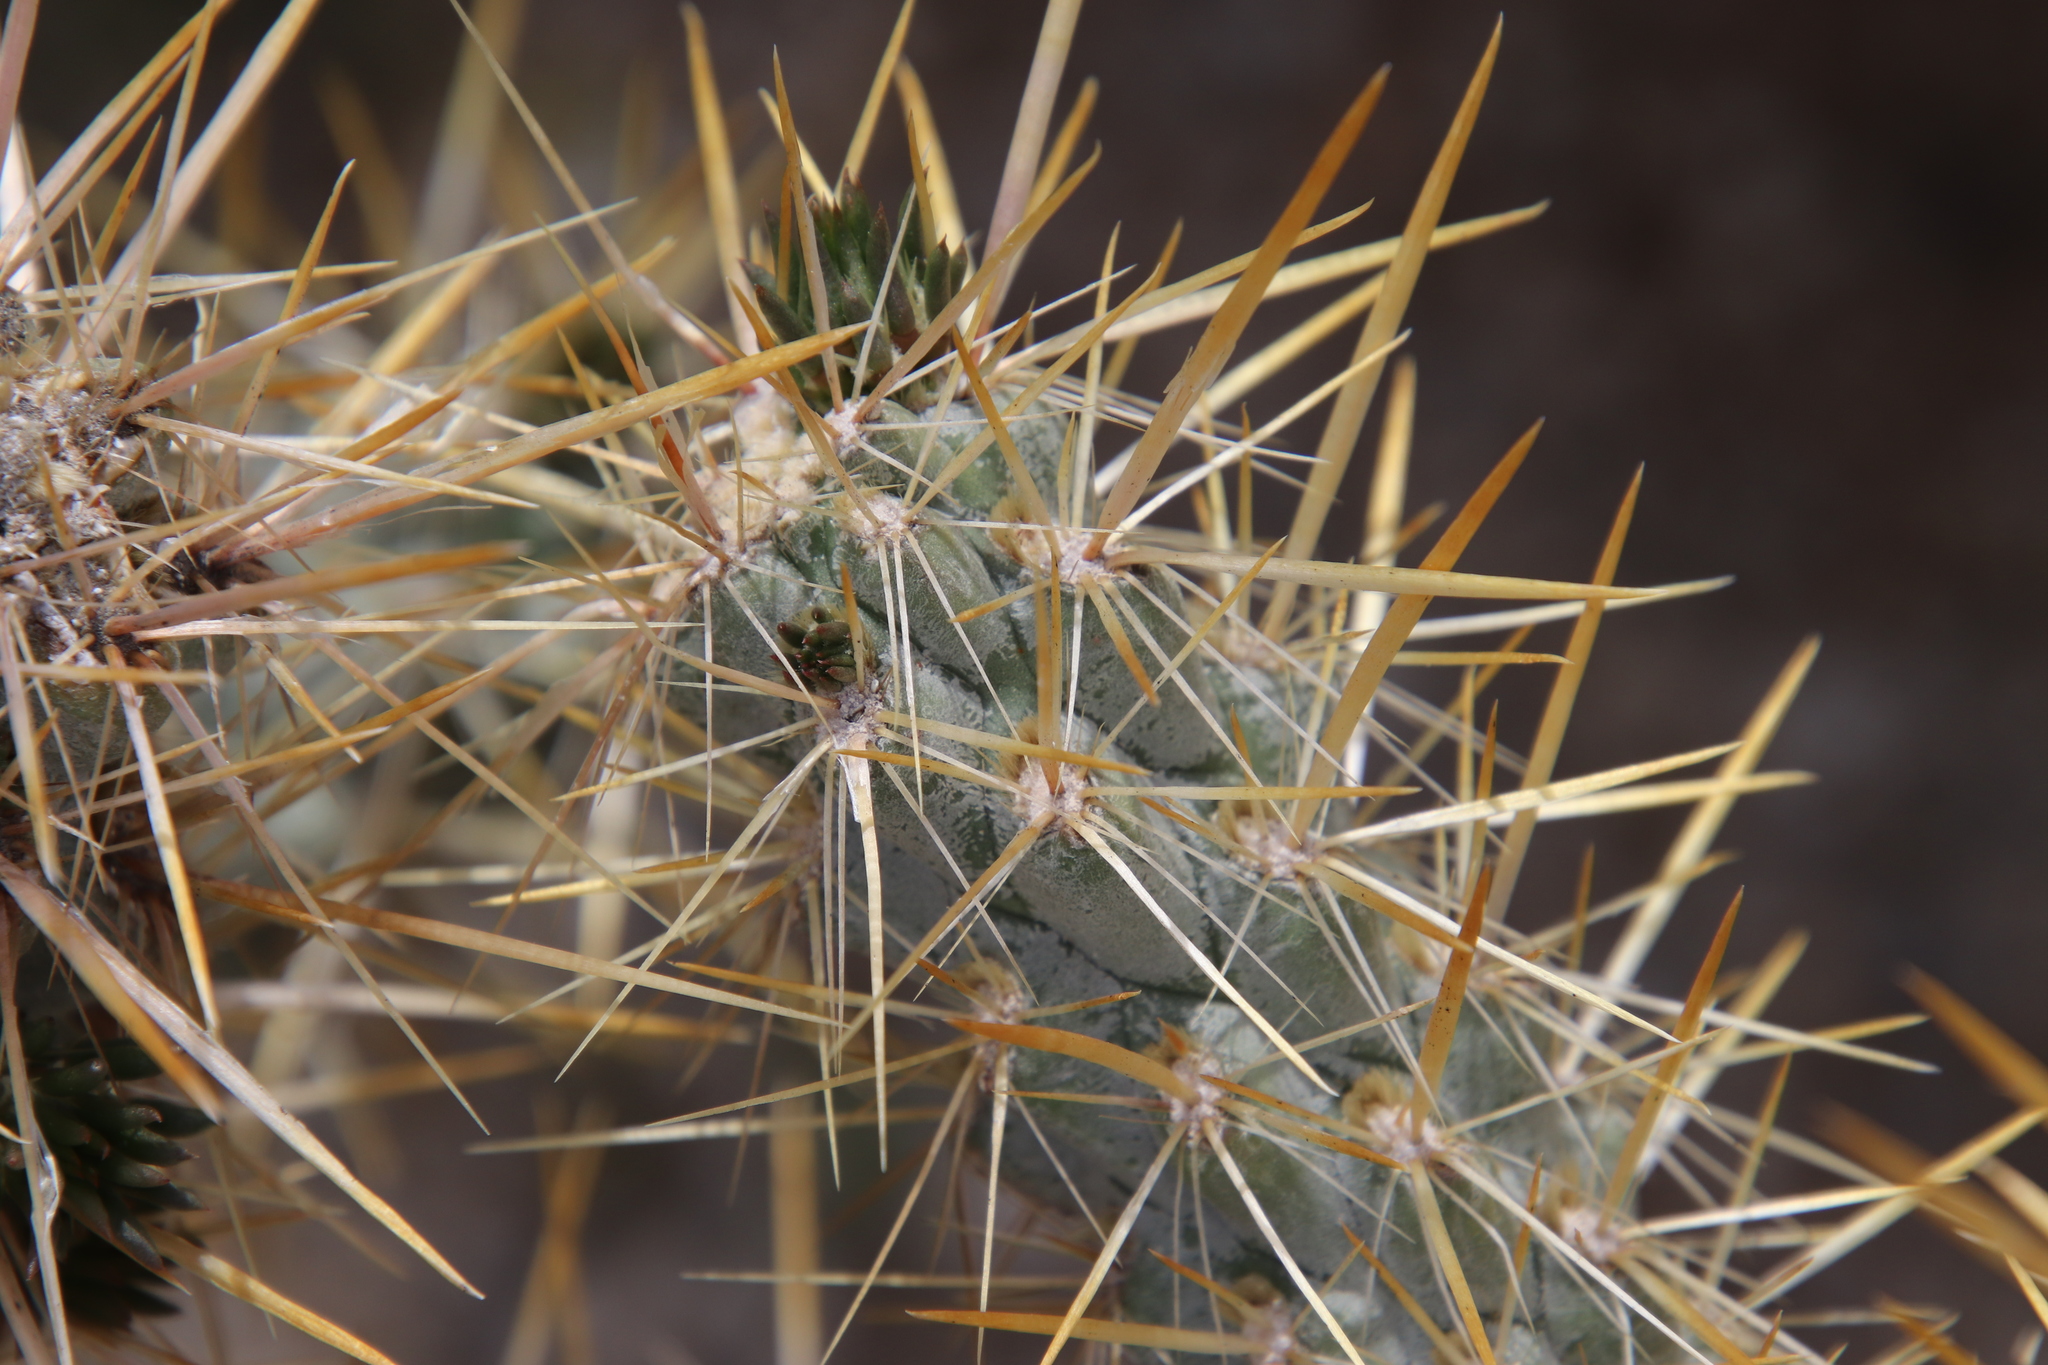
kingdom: Plantae
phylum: Tracheophyta
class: Magnoliopsida
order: Caryophyllales
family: Cactaceae
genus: Cylindropuntia
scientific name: Cylindropuntia echinocarpa
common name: Ground cholla
